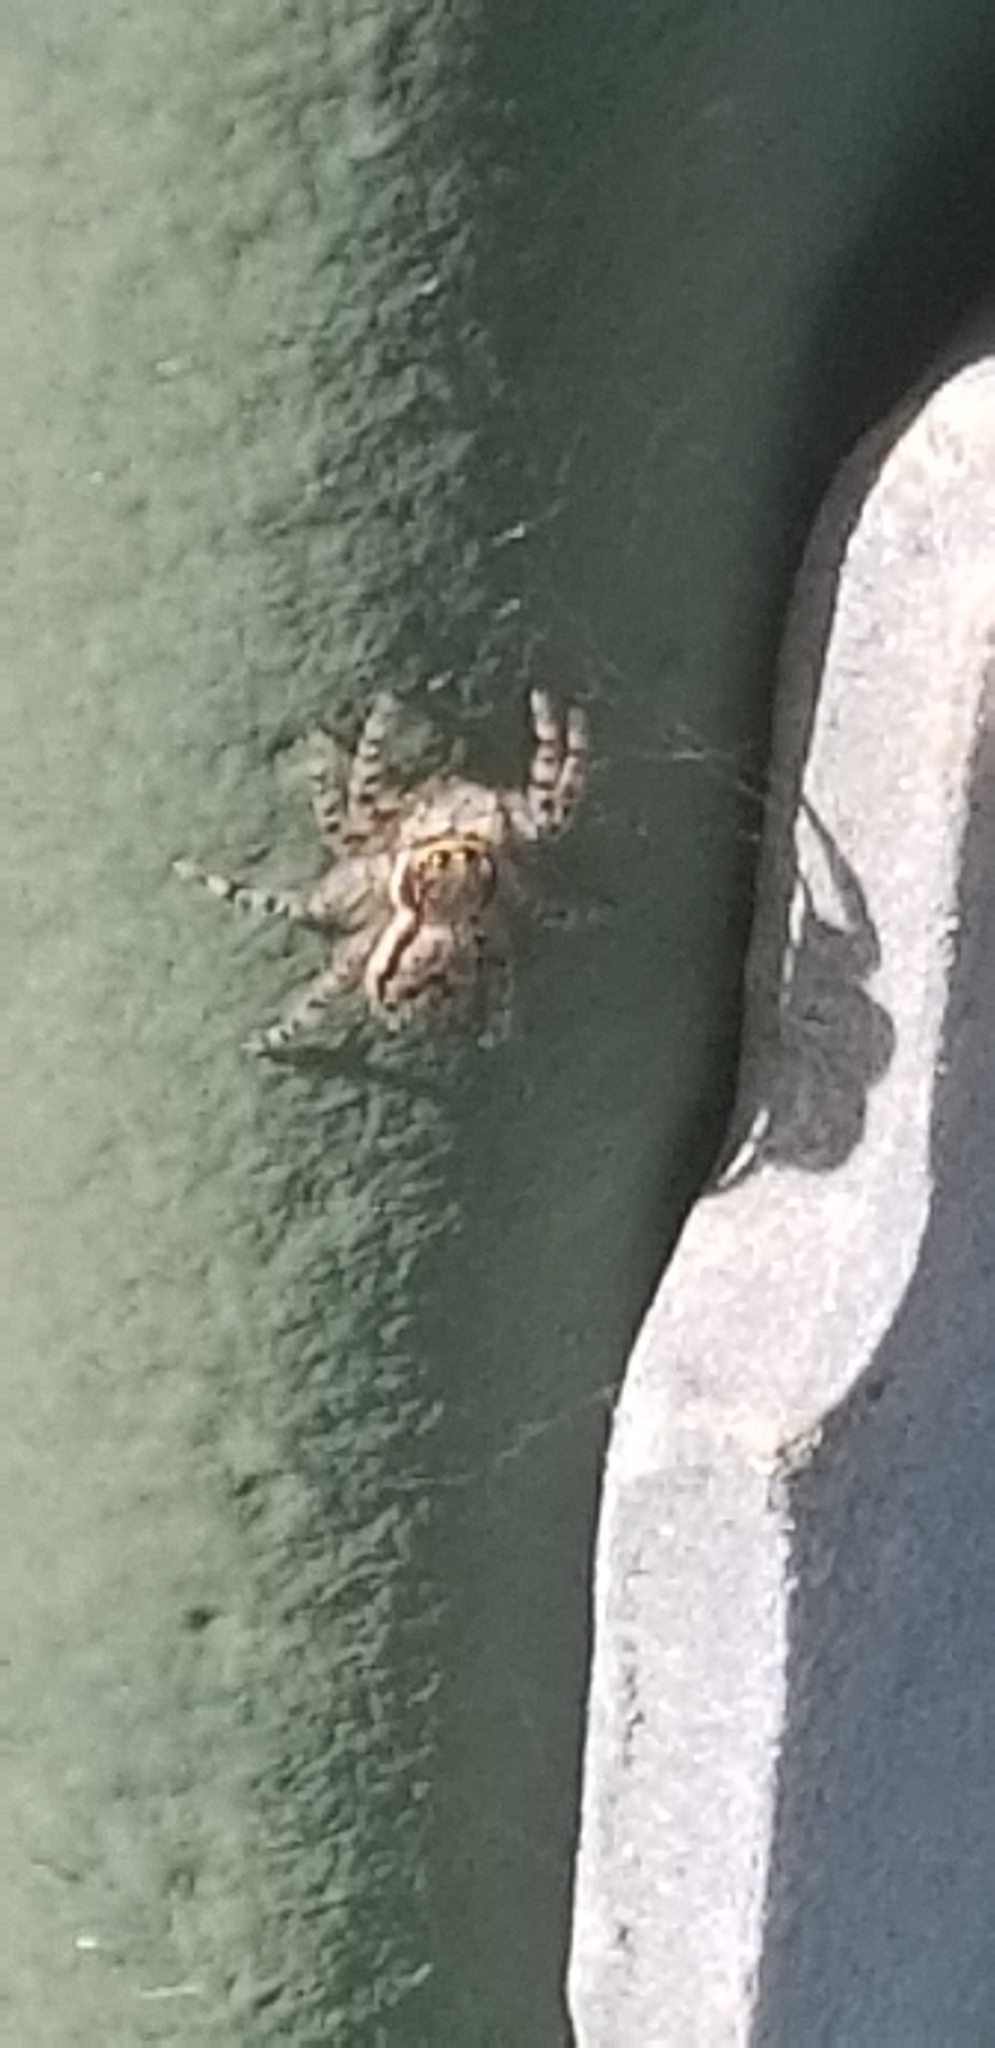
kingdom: Animalia
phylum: Arthropoda
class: Arachnida
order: Araneae
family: Salticidae
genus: Menemerus
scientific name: Menemerus bivittatus
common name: Gray wall jumper
